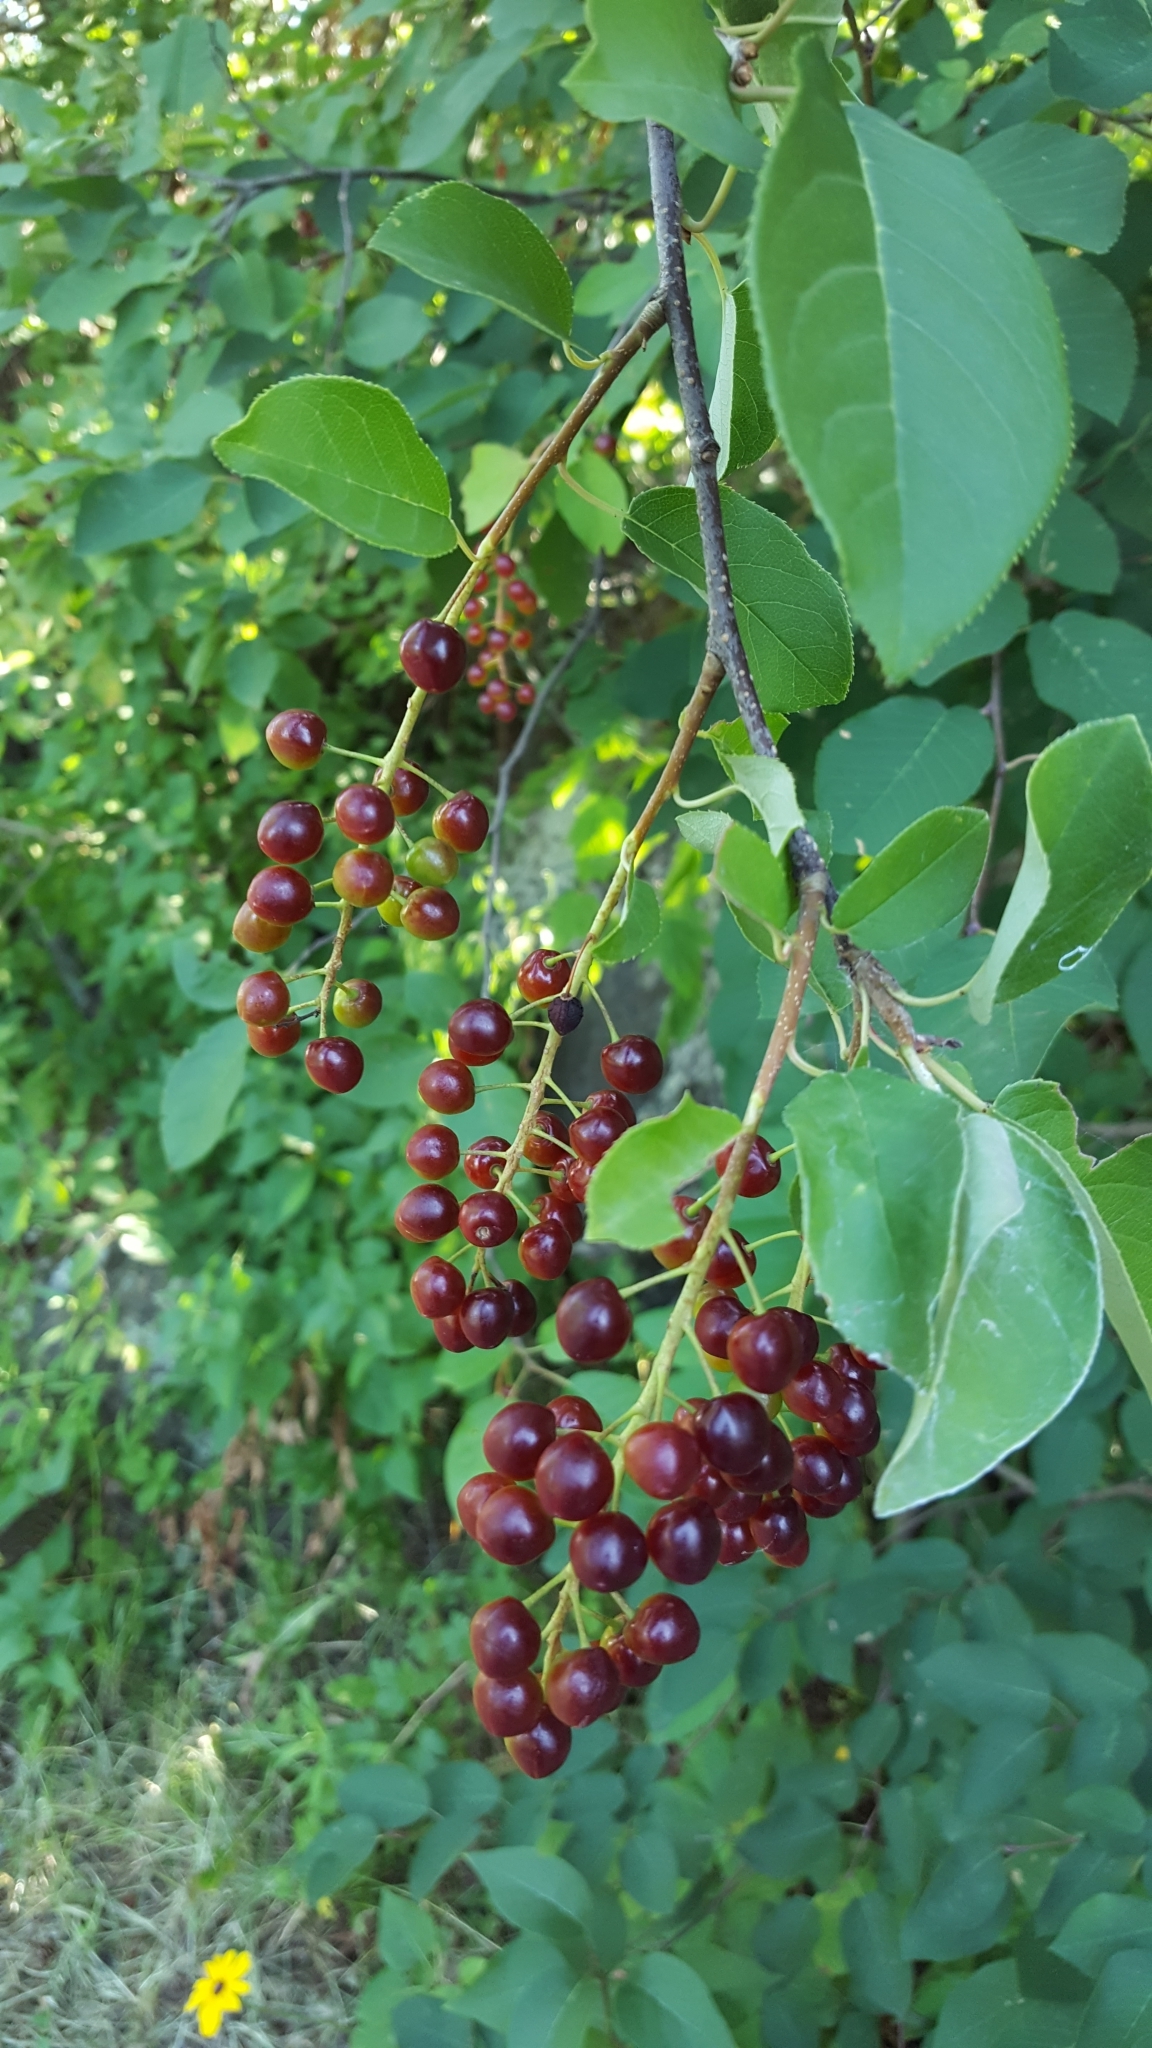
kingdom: Plantae
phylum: Tracheophyta
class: Magnoliopsida
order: Rosales
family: Rosaceae
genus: Prunus
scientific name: Prunus virginiana
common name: Chokecherry
